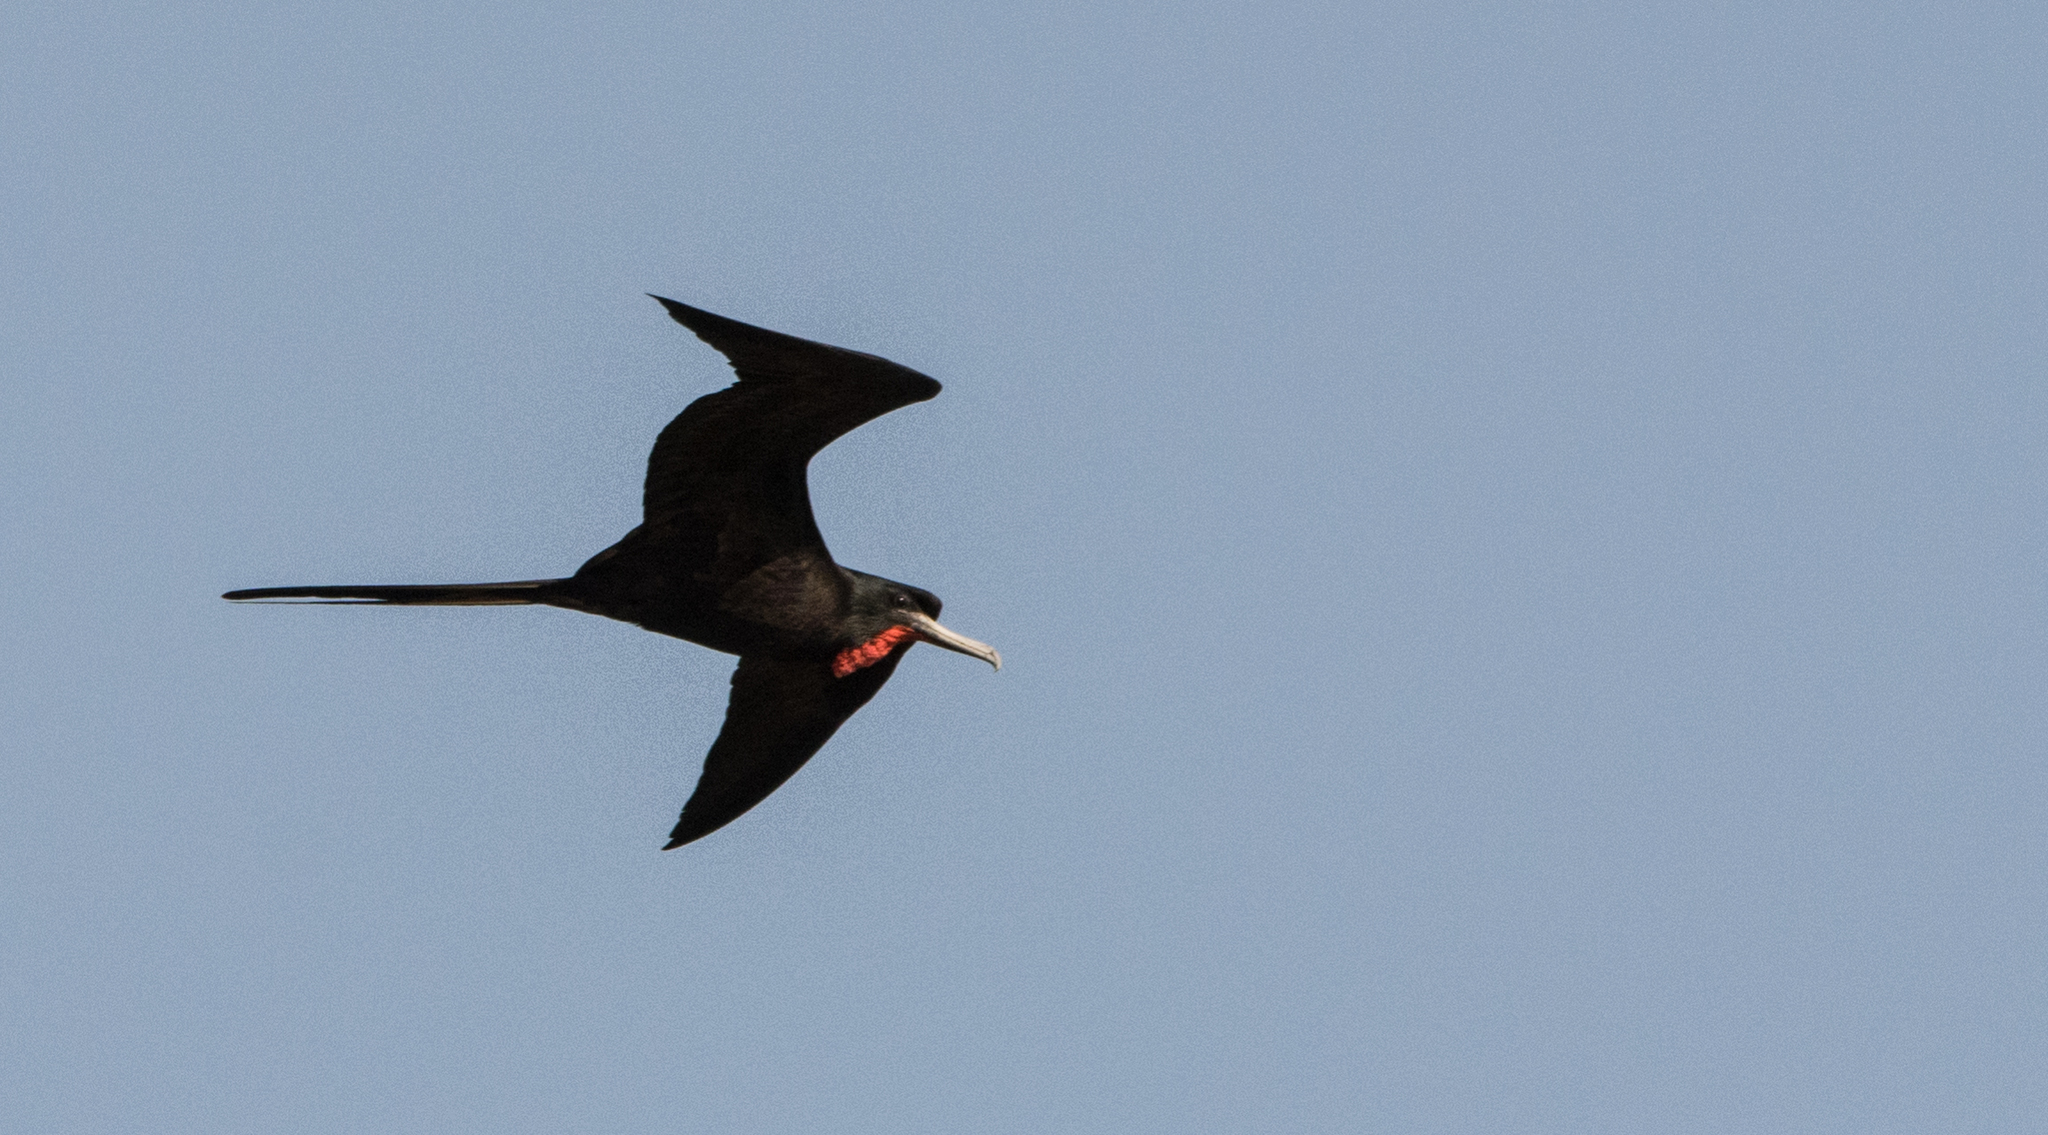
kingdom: Animalia
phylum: Chordata
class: Aves
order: Suliformes
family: Fregatidae
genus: Fregata
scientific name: Fregata magnificens
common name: Magnificent frigatebird
